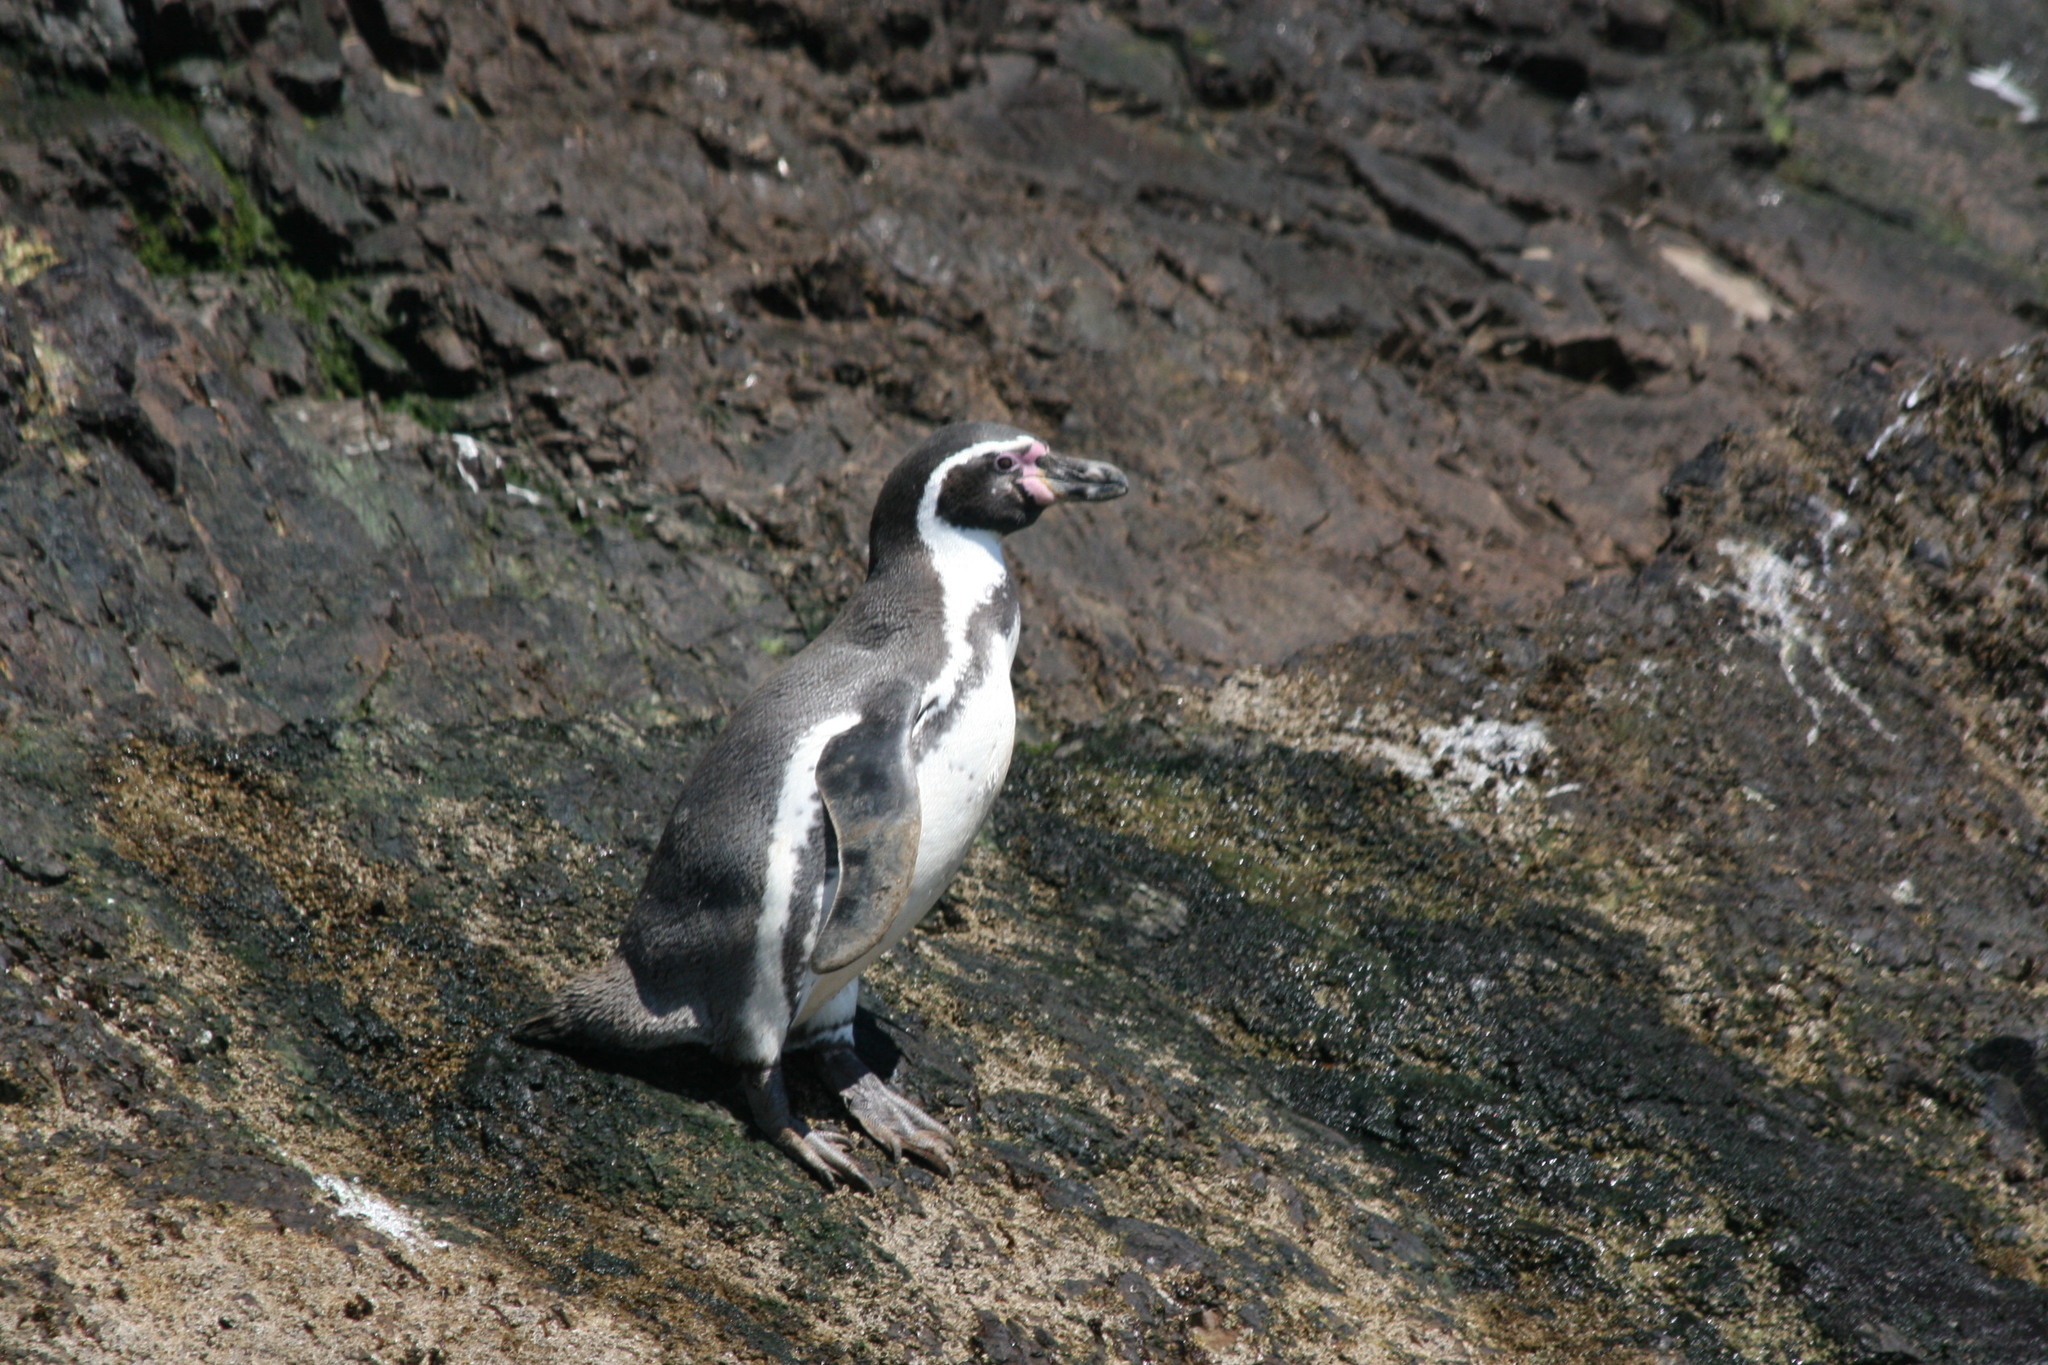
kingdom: Animalia
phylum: Chordata
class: Aves
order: Sphenisciformes
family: Spheniscidae
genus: Spheniscus
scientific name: Spheniscus humboldti
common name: Humboldt penguin
